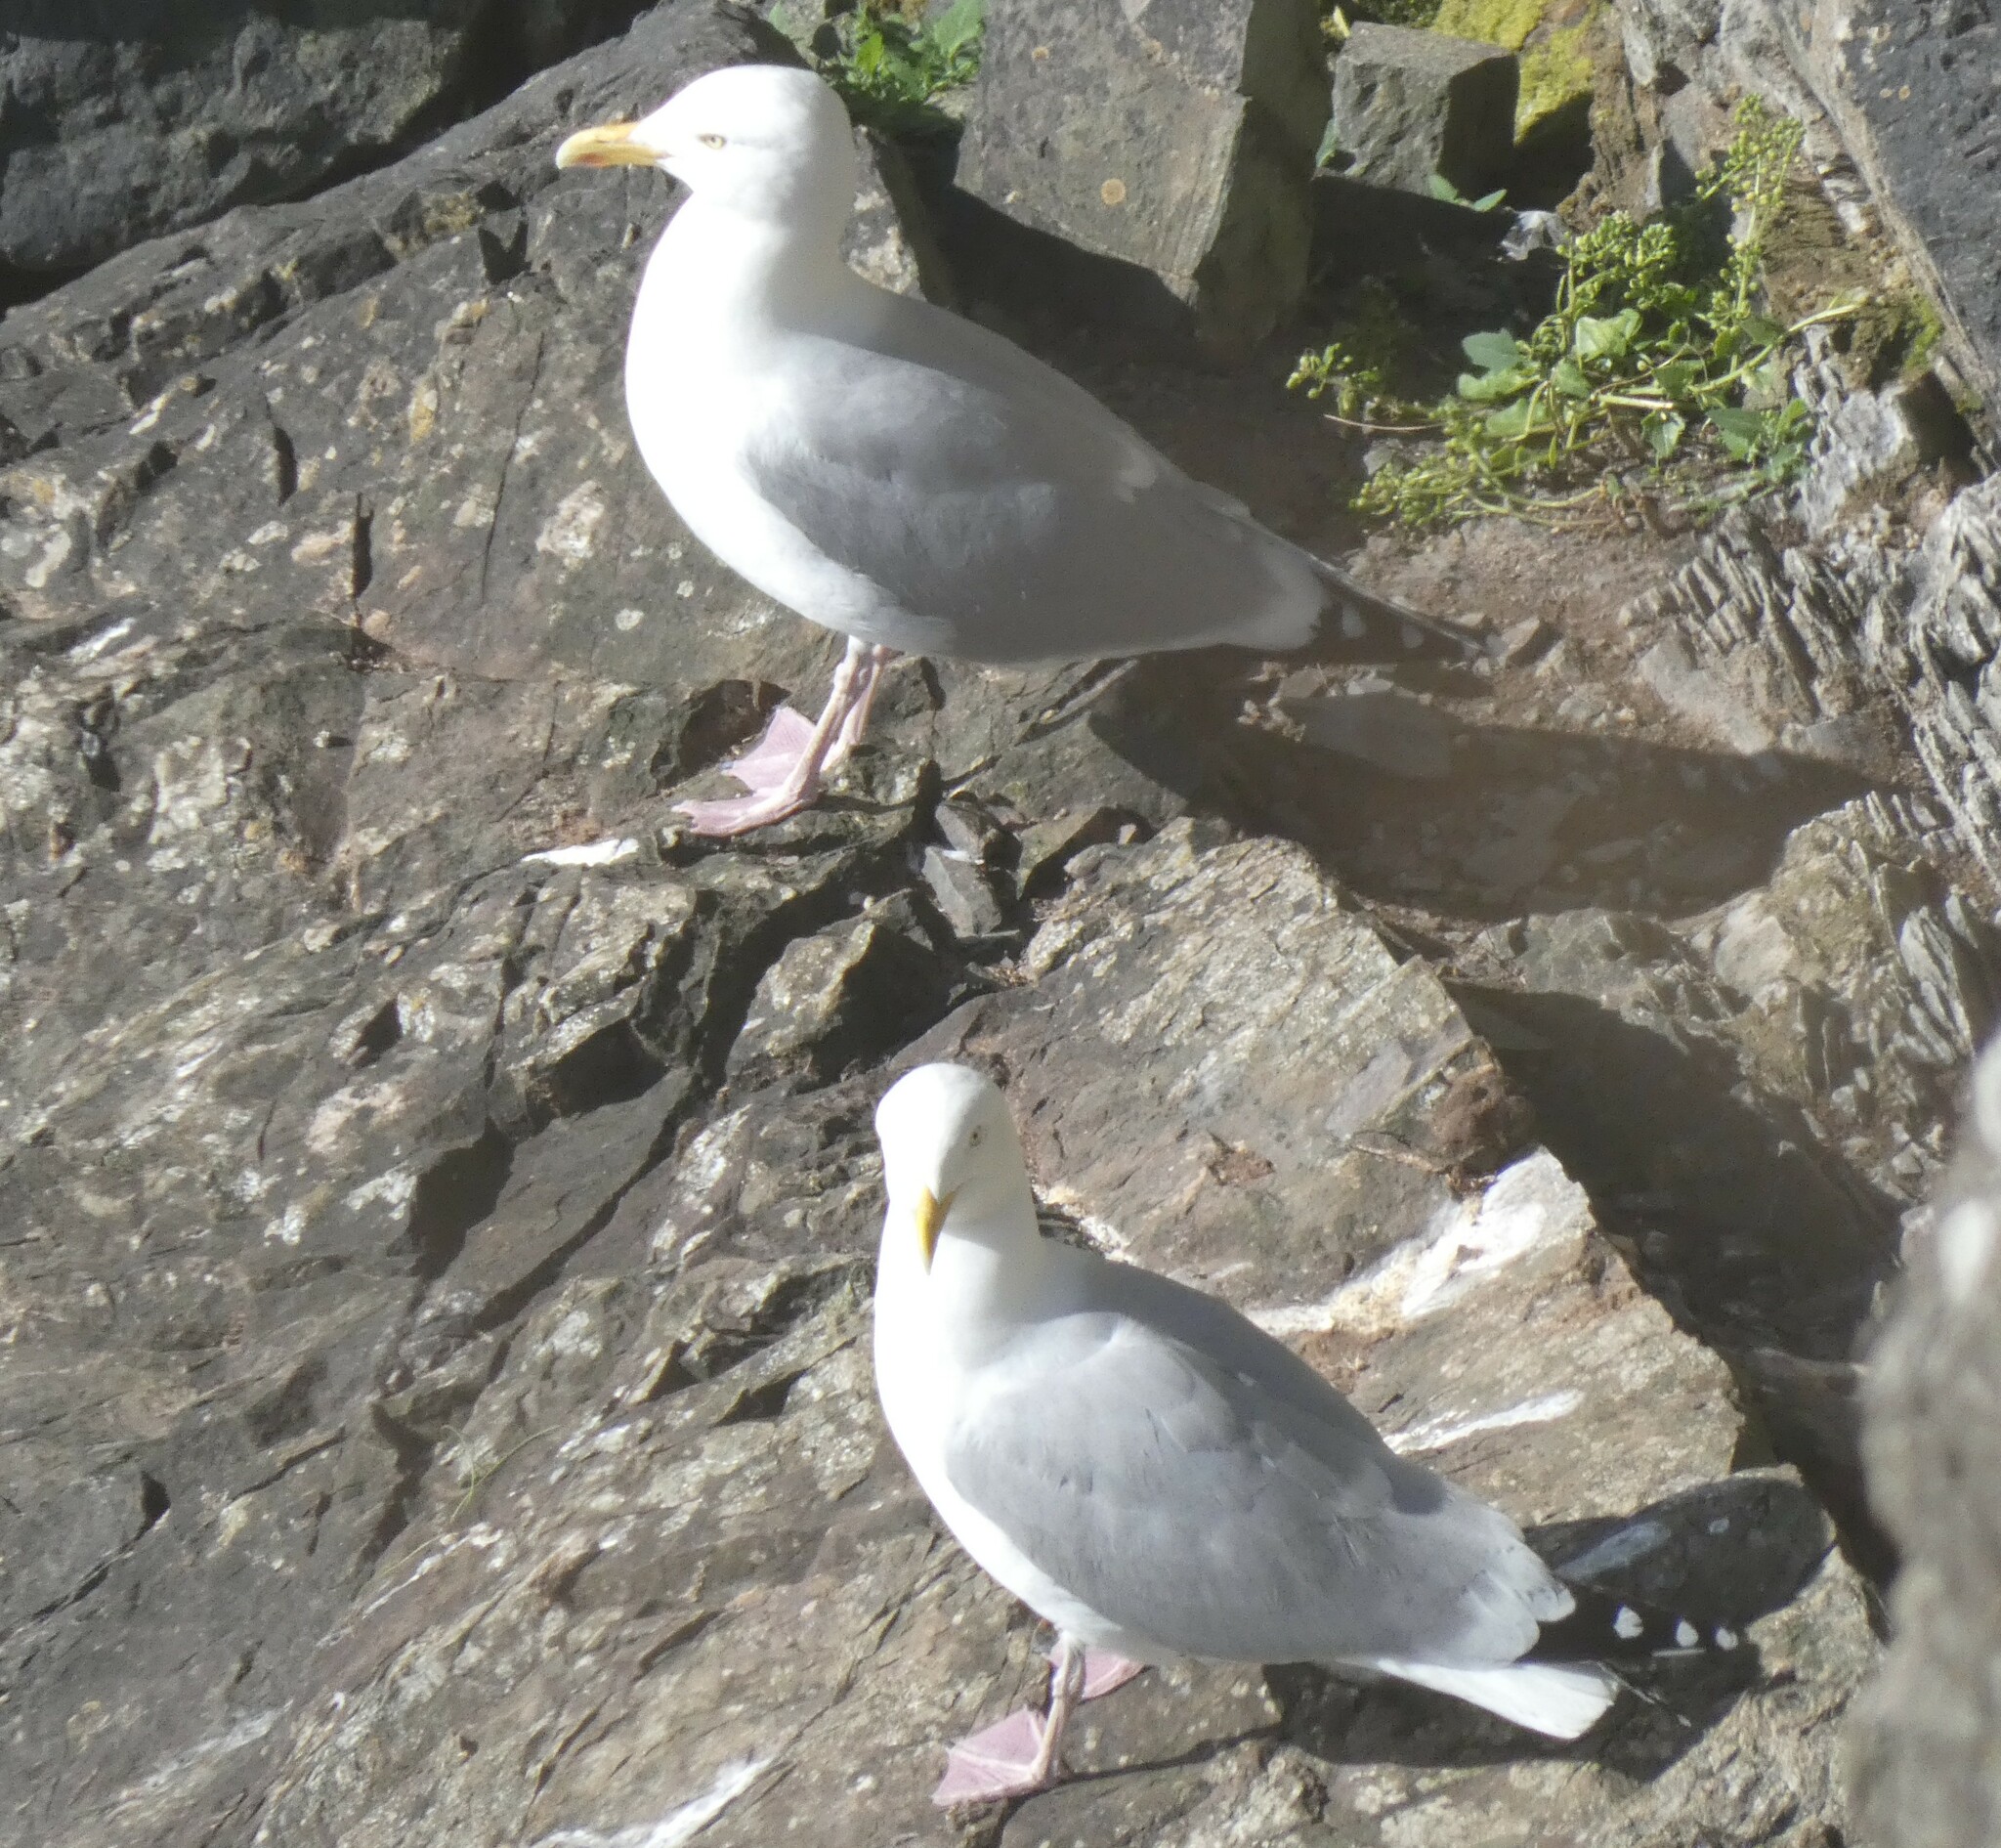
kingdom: Animalia
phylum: Chordata
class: Aves
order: Charadriiformes
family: Laridae
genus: Larus
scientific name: Larus argentatus
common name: Herring gull
